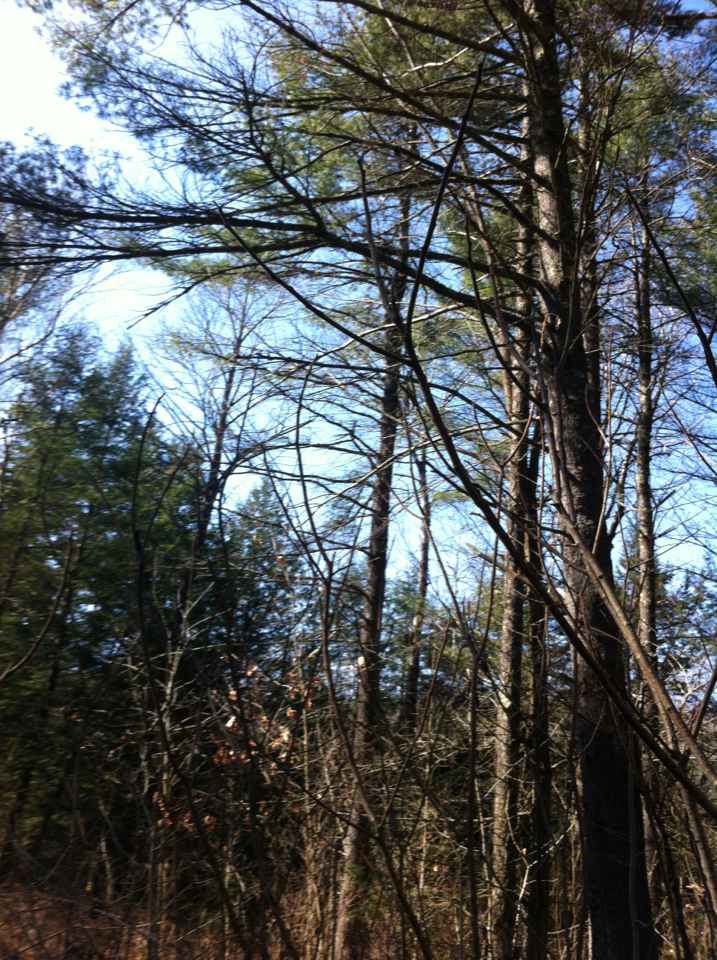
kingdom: Plantae
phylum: Tracheophyta
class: Magnoliopsida
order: Sapindales
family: Anacardiaceae
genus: Rhus
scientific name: Rhus typhina
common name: Staghorn sumac
